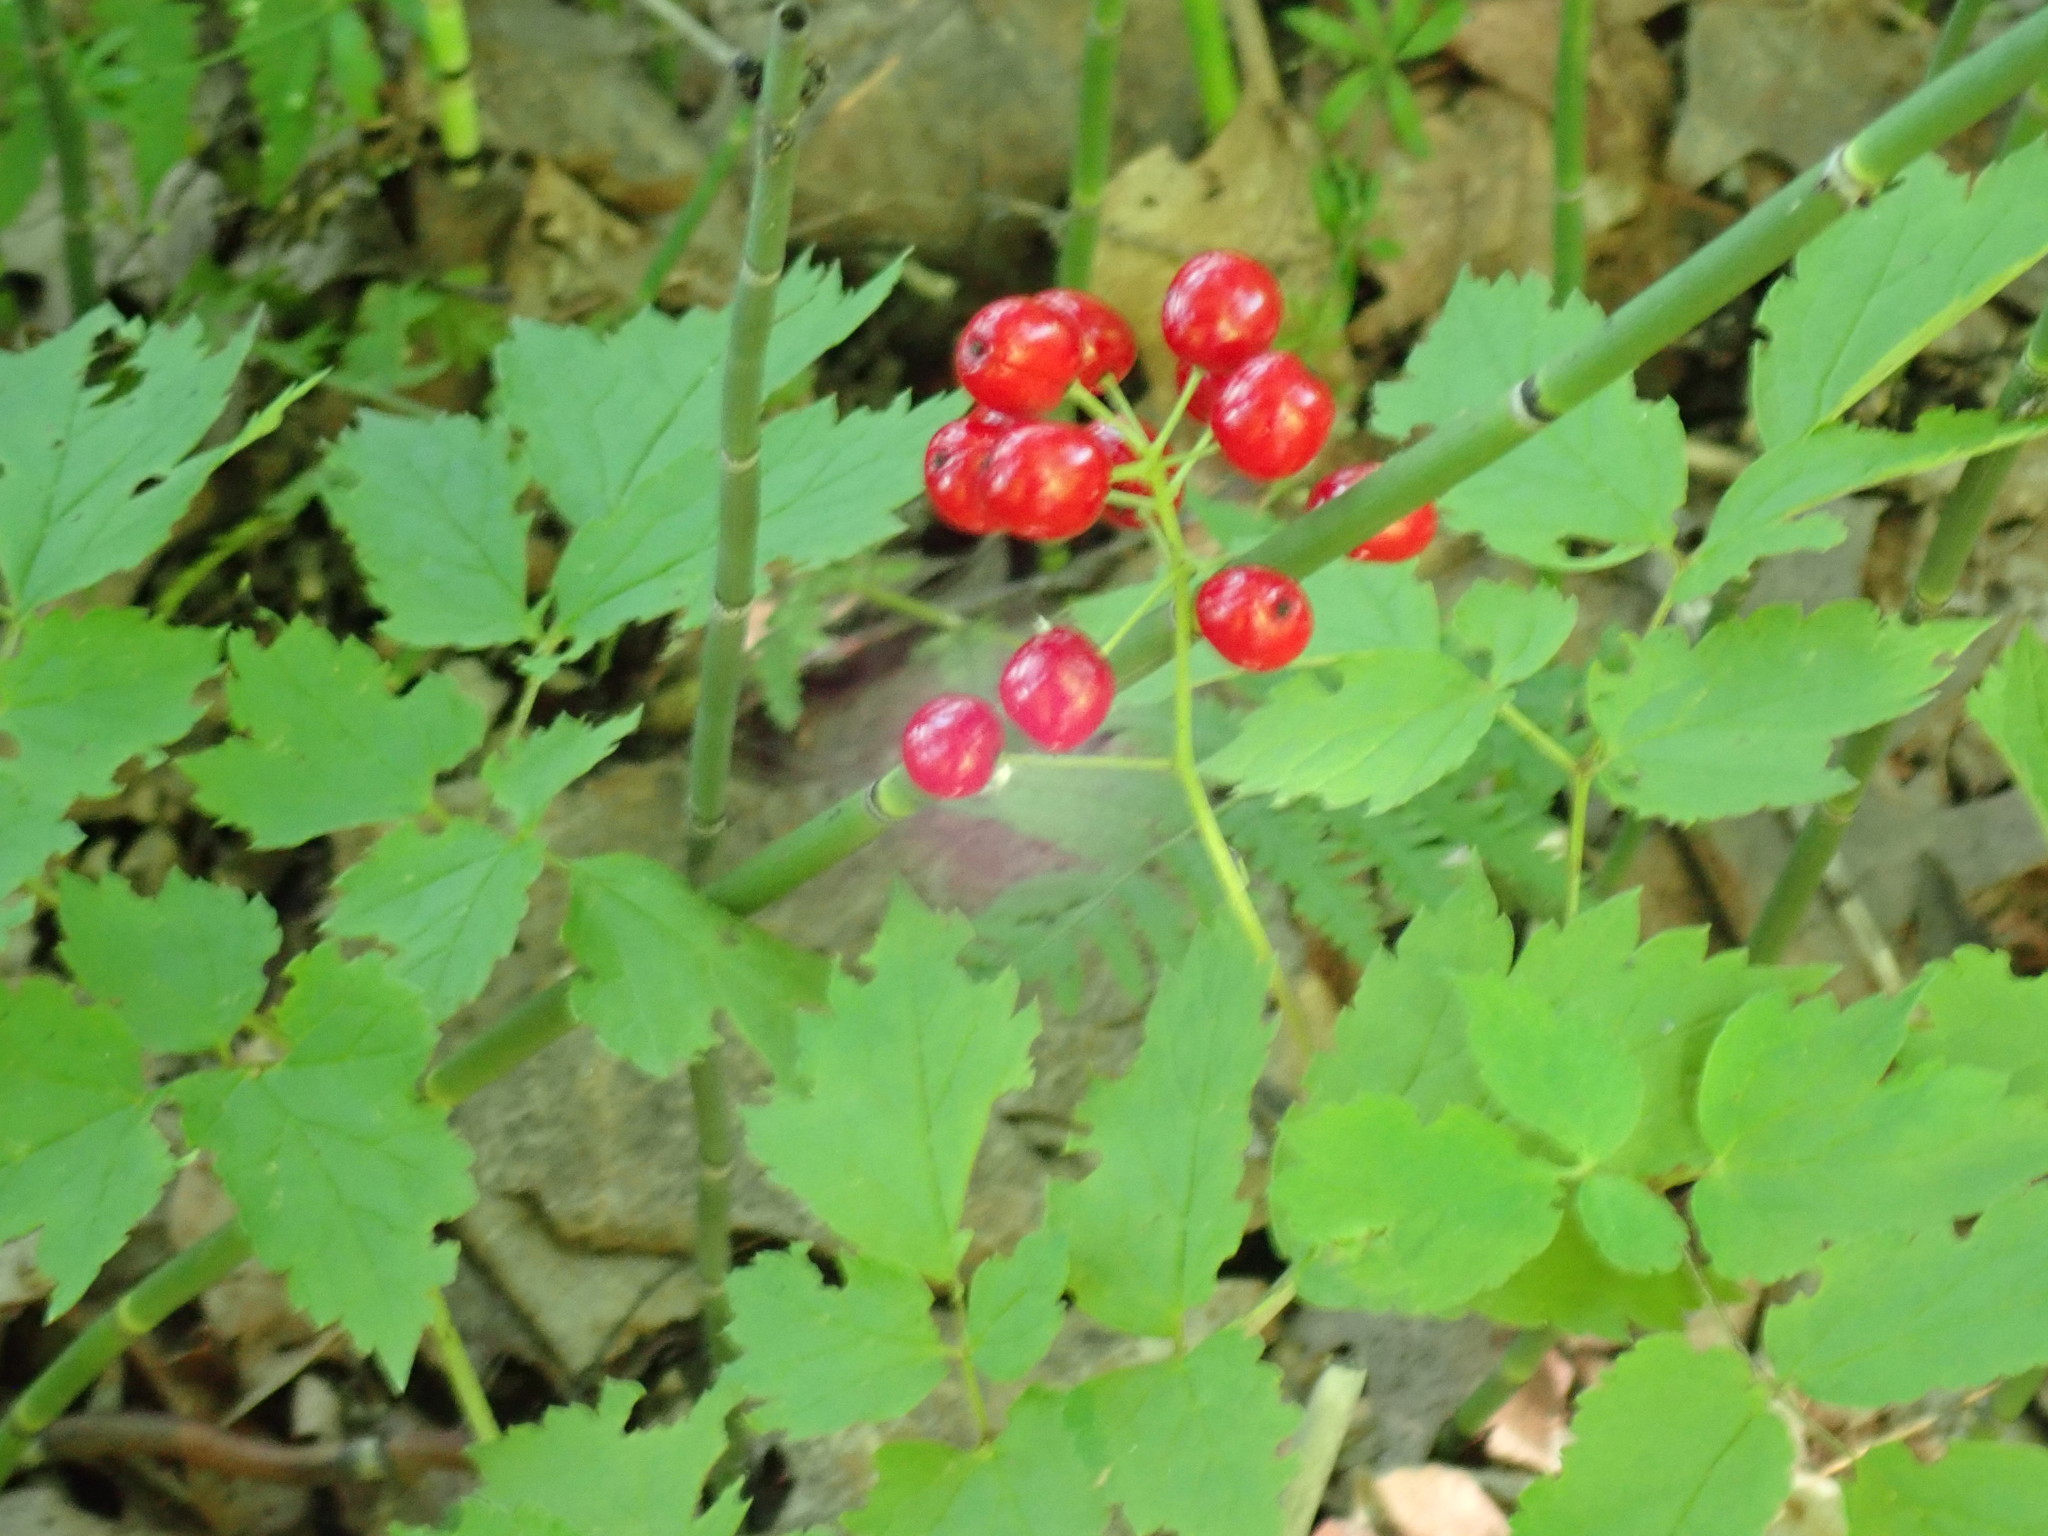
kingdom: Plantae
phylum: Tracheophyta
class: Magnoliopsida
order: Ranunculales
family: Ranunculaceae
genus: Actaea
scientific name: Actaea rubra
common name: Red baneberry
